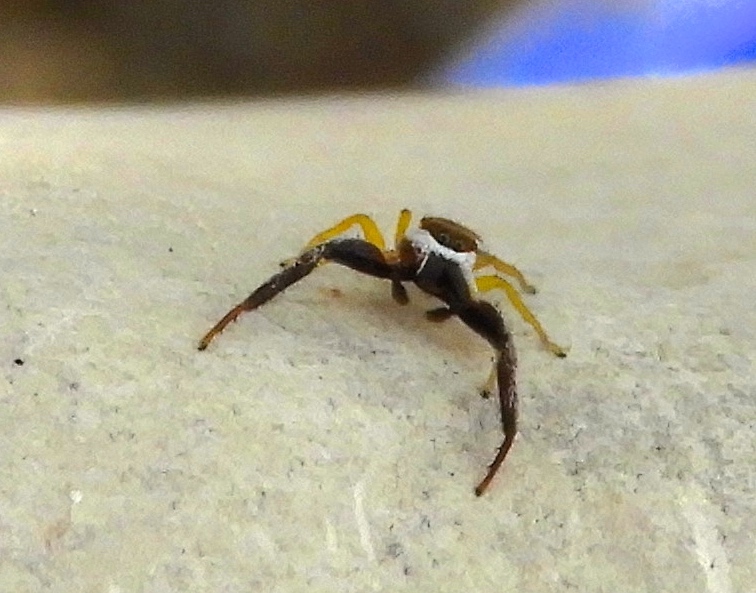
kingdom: Animalia
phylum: Arthropoda
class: Arachnida
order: Araneae
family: Salticidae
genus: Hentzia
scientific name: Hentzia palmarum
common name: Common hentz jumping spider
